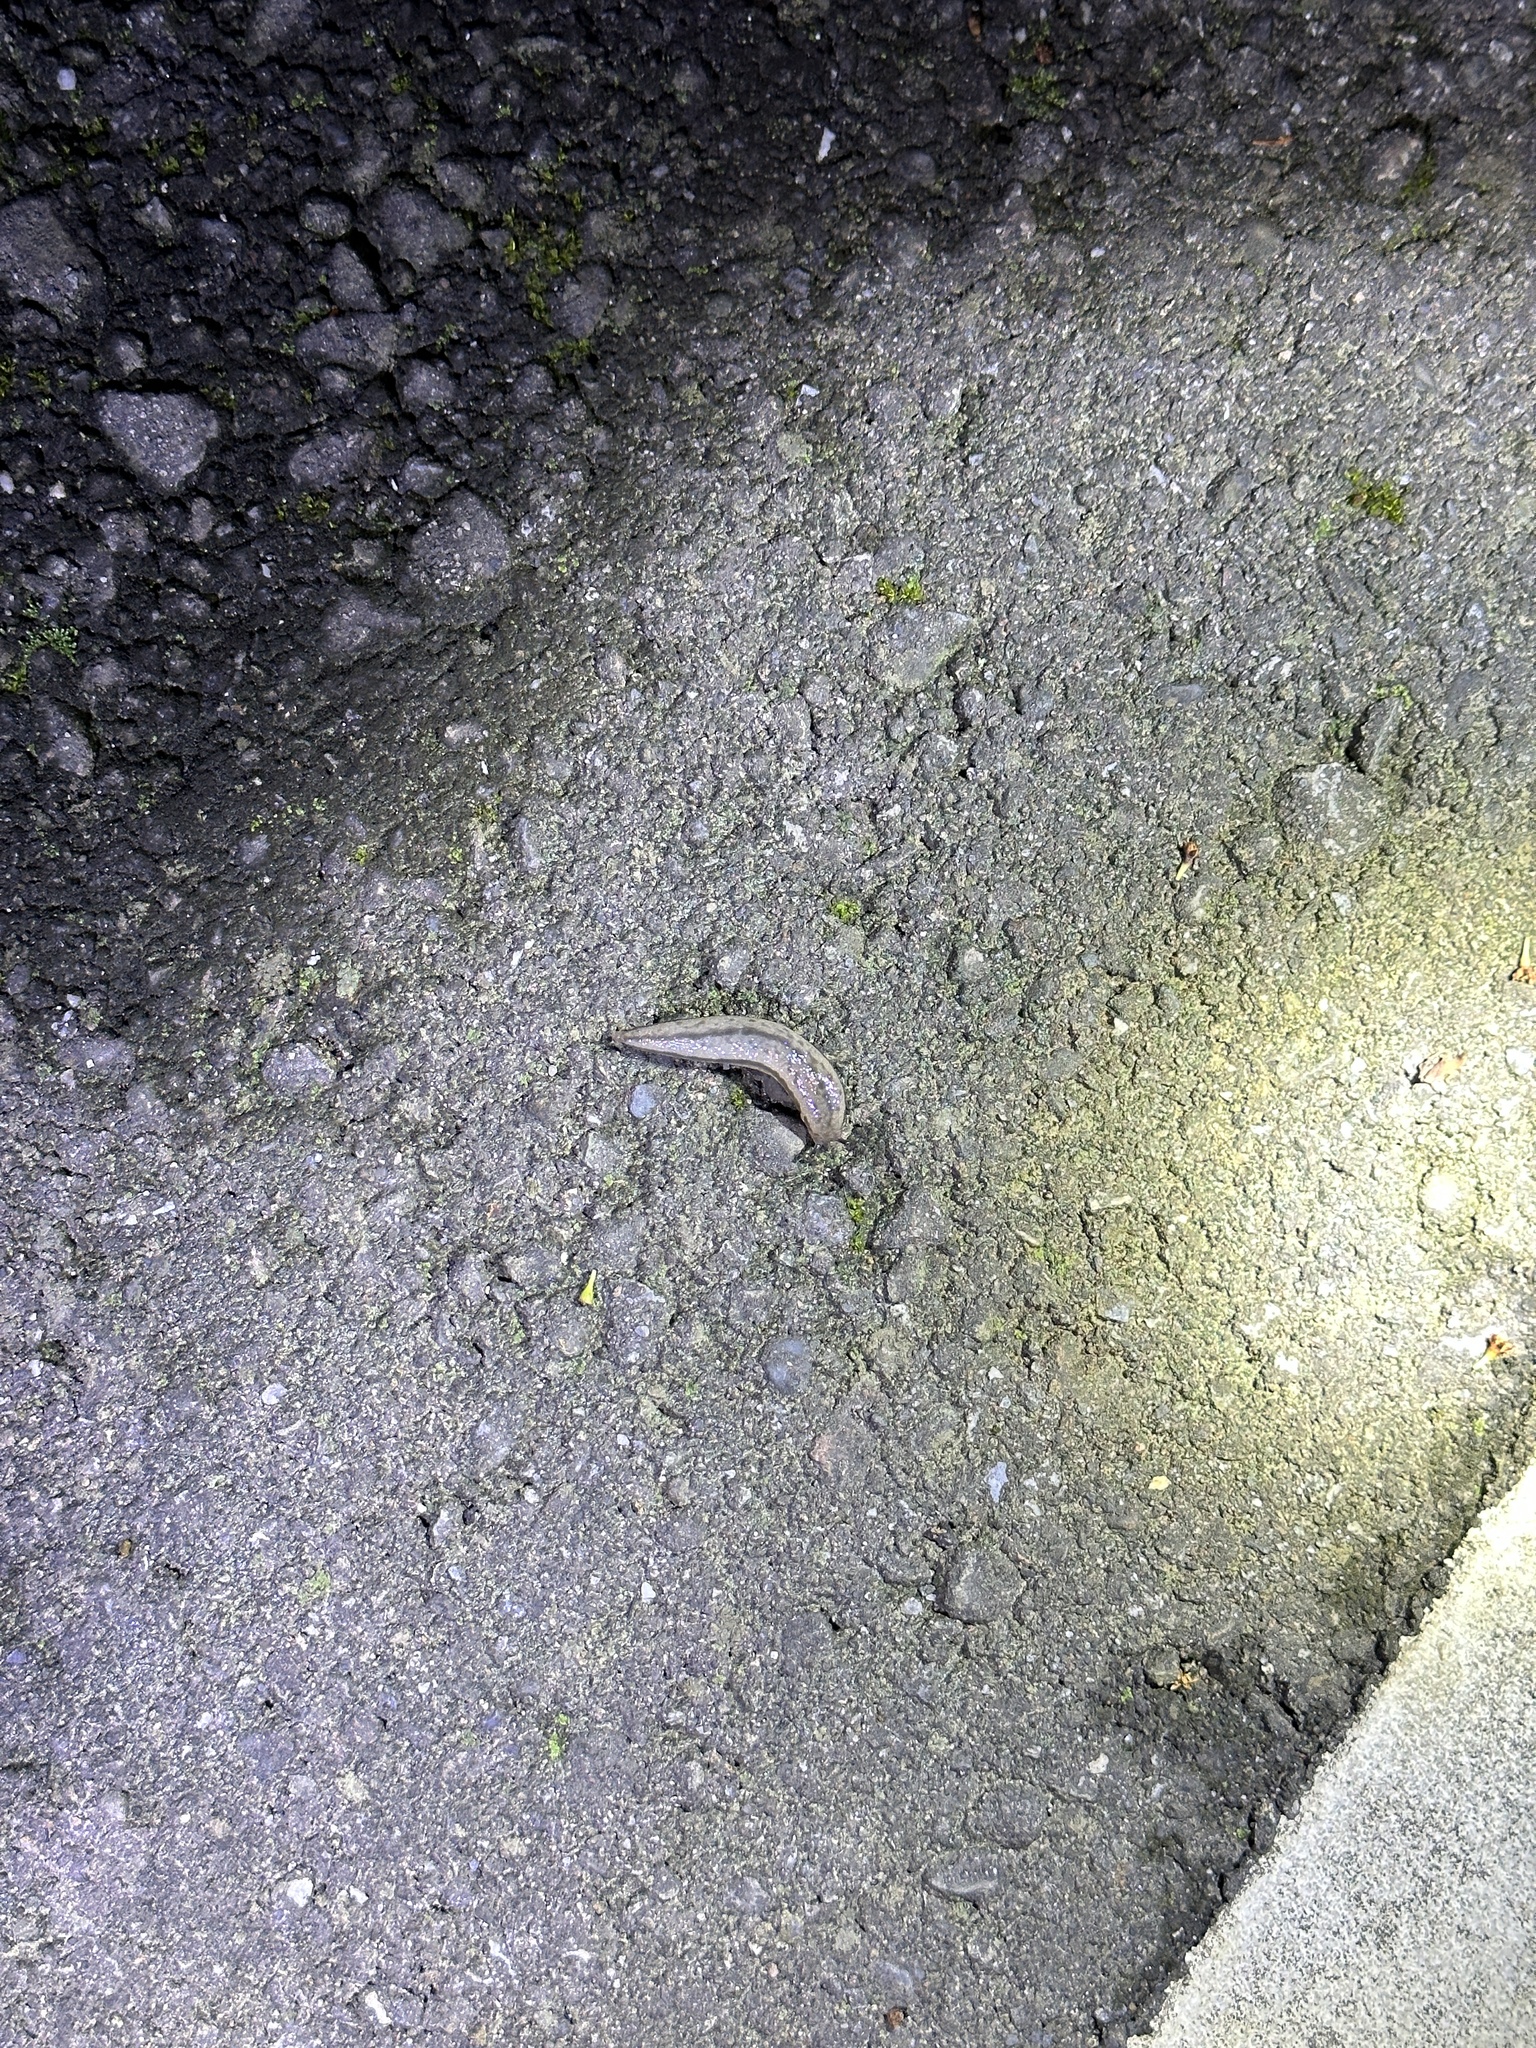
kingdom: Animalia
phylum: Mollusca
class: Gastropoda
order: Stylommatophora
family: Philomycidae
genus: Meghimatium
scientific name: Meghimatium bilineatum
